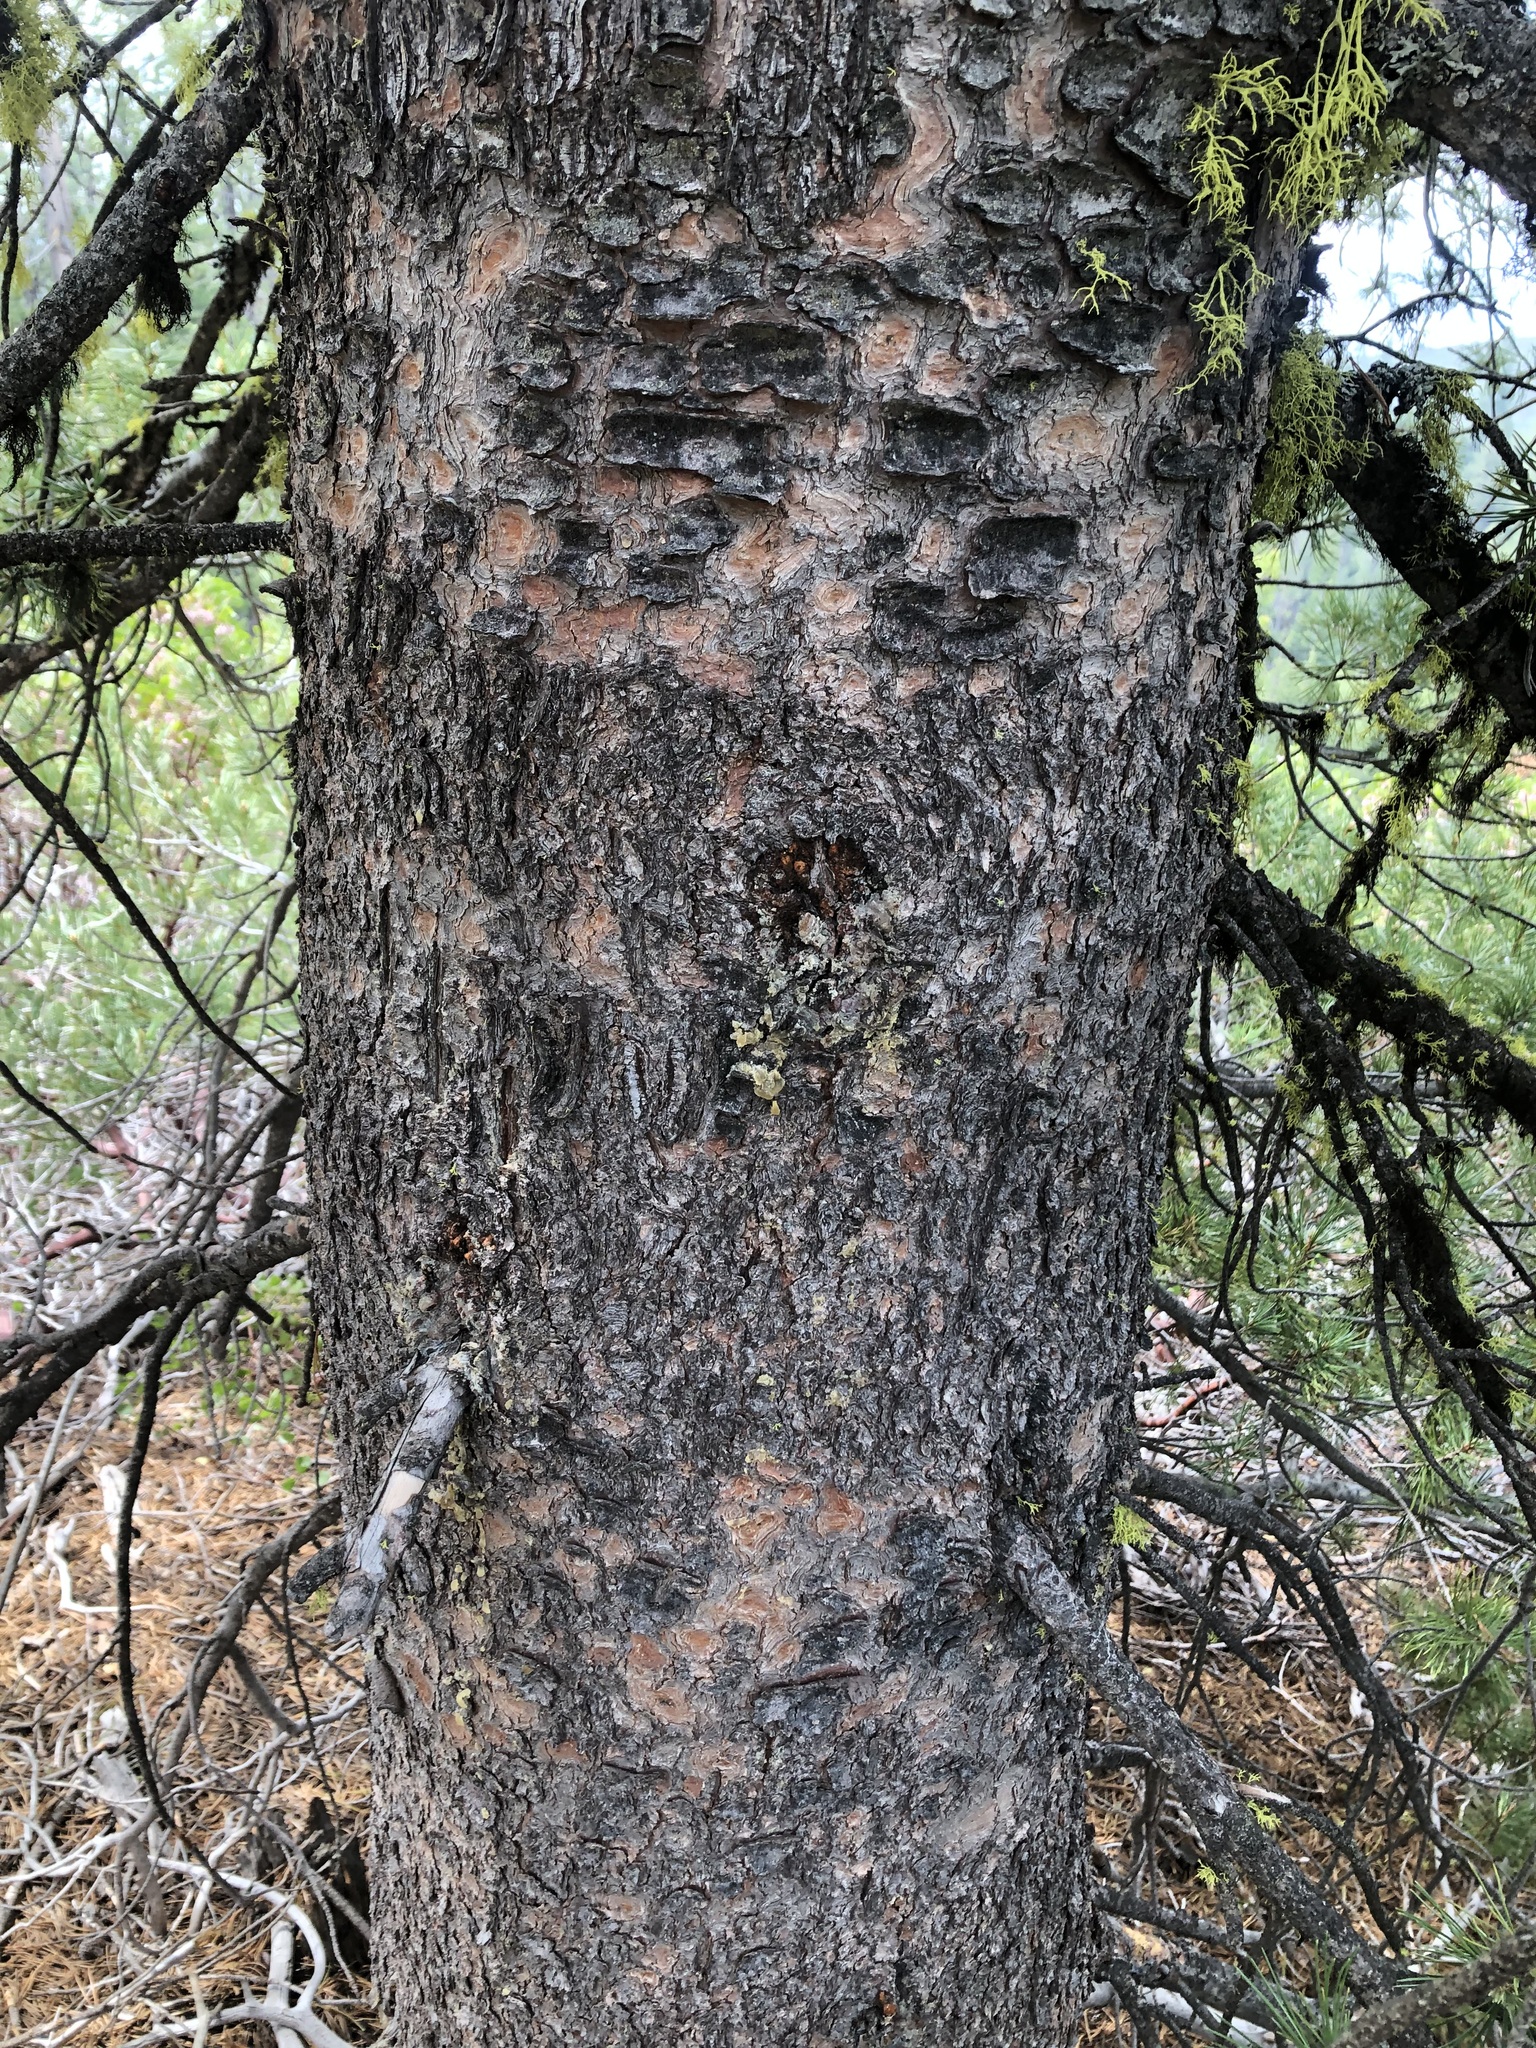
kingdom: Plantae
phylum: Tracheophyta
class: Pinopsida
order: Pinales
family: Pinaceae
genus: Pinus
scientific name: Pinus albicaulis
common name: Whitebark pine
